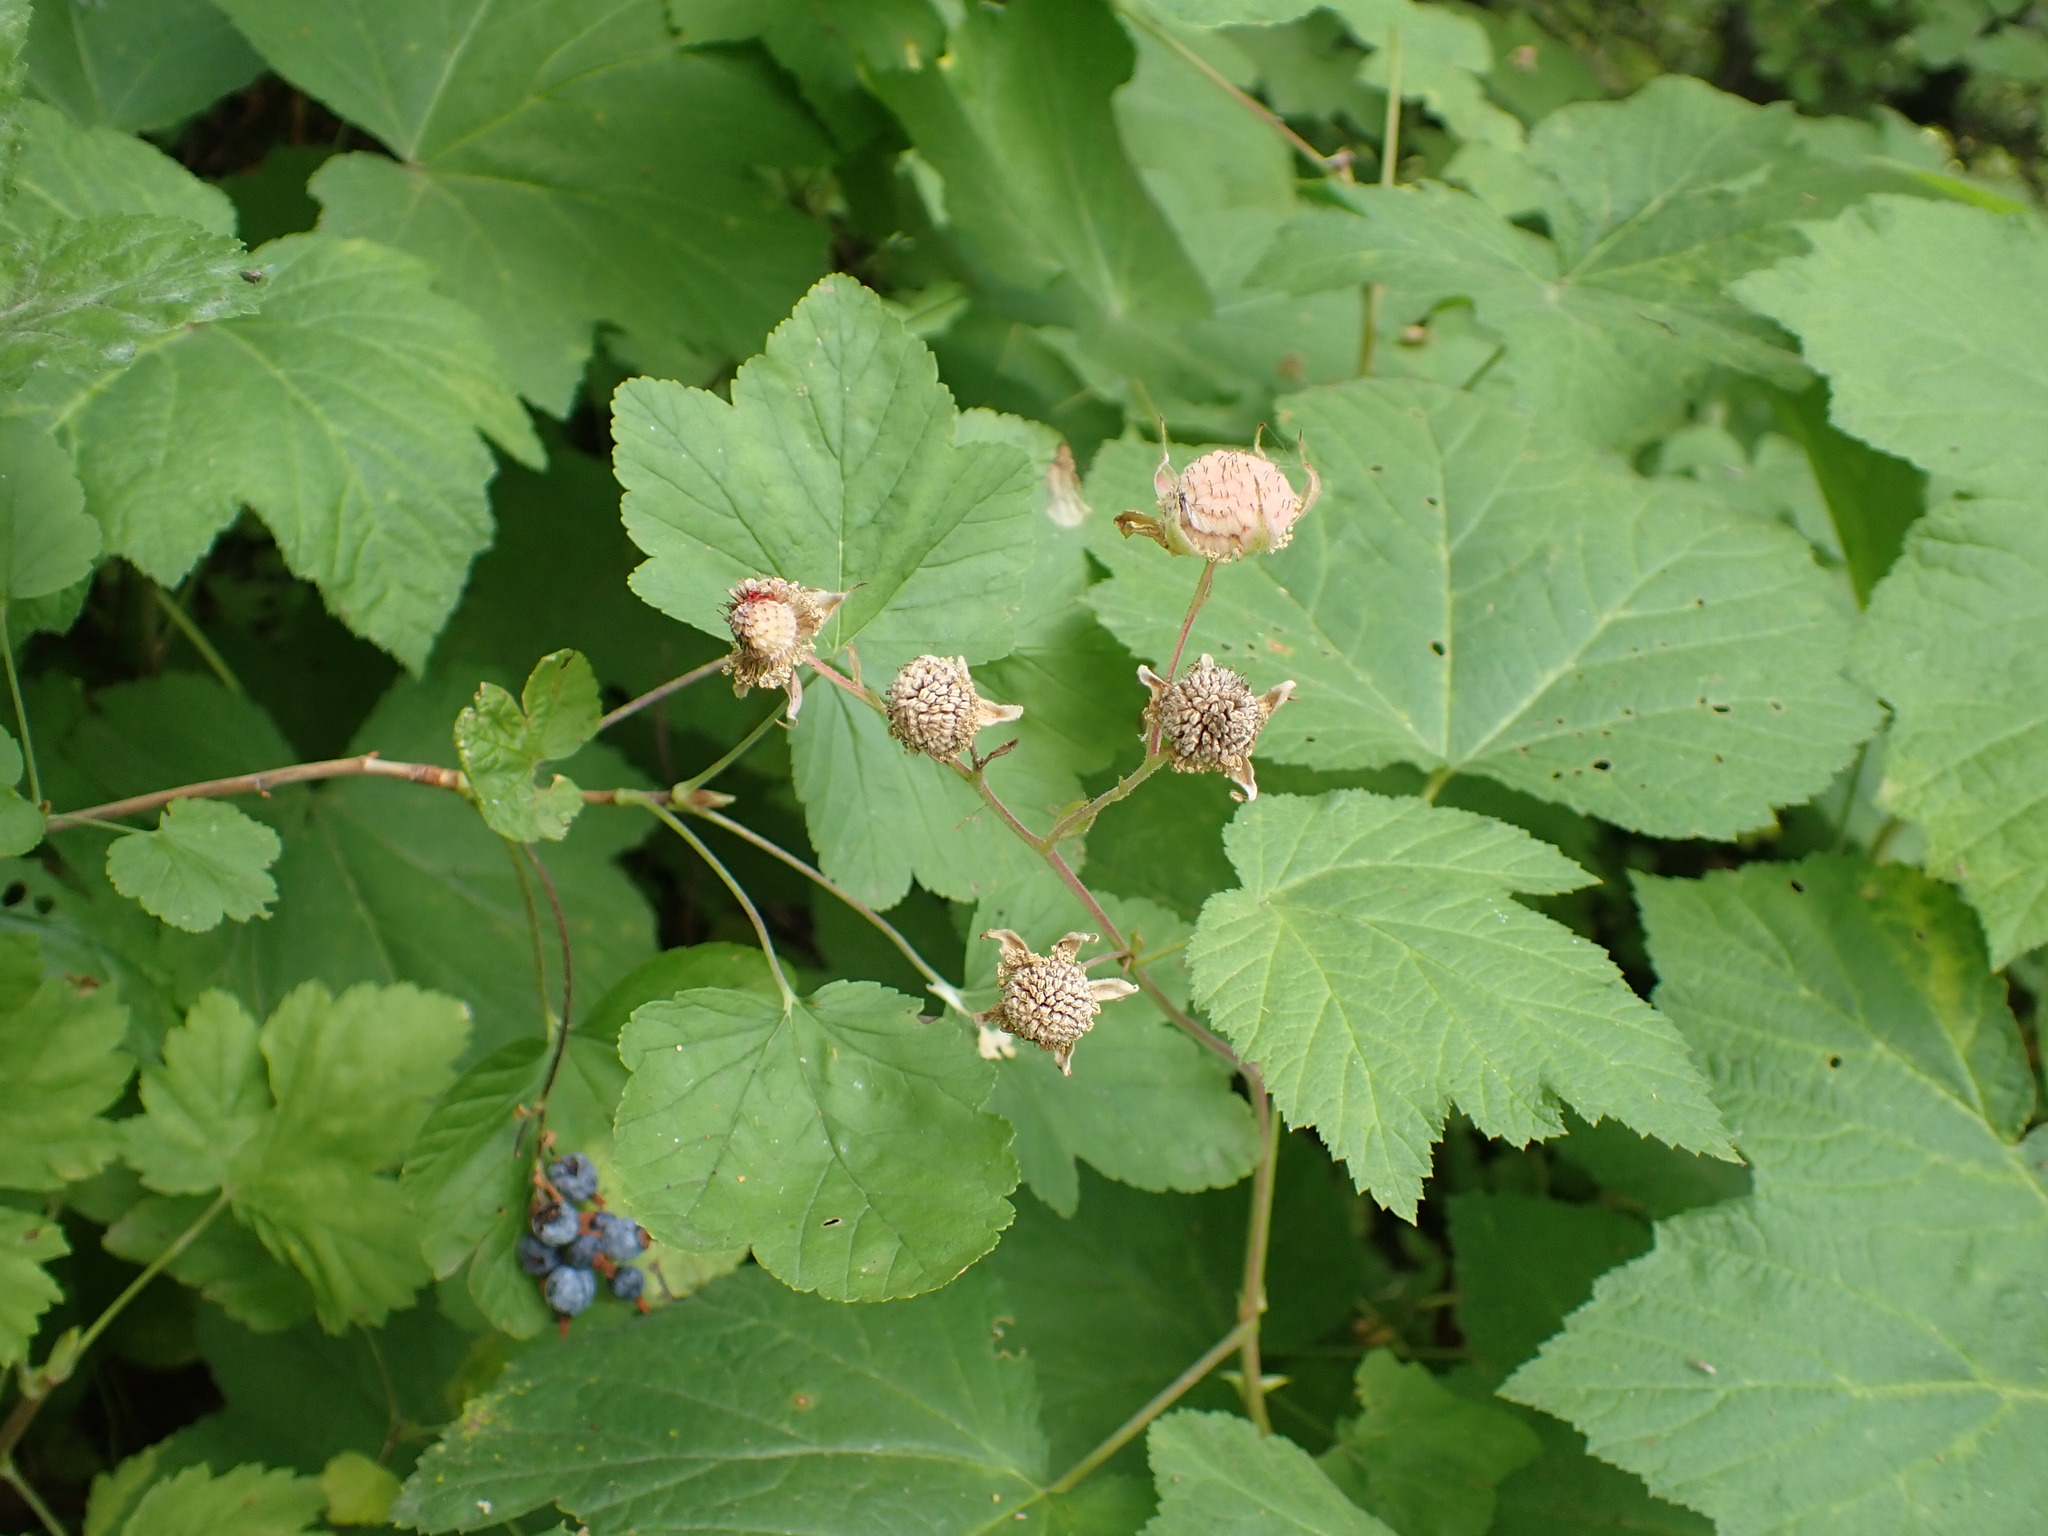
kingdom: Plantae
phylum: Tracheophyta
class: Magnoliopsida
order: Saxifragales
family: Grossulariaceae
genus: Ribes
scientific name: Ribes nevadense
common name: Mountain pink currant
